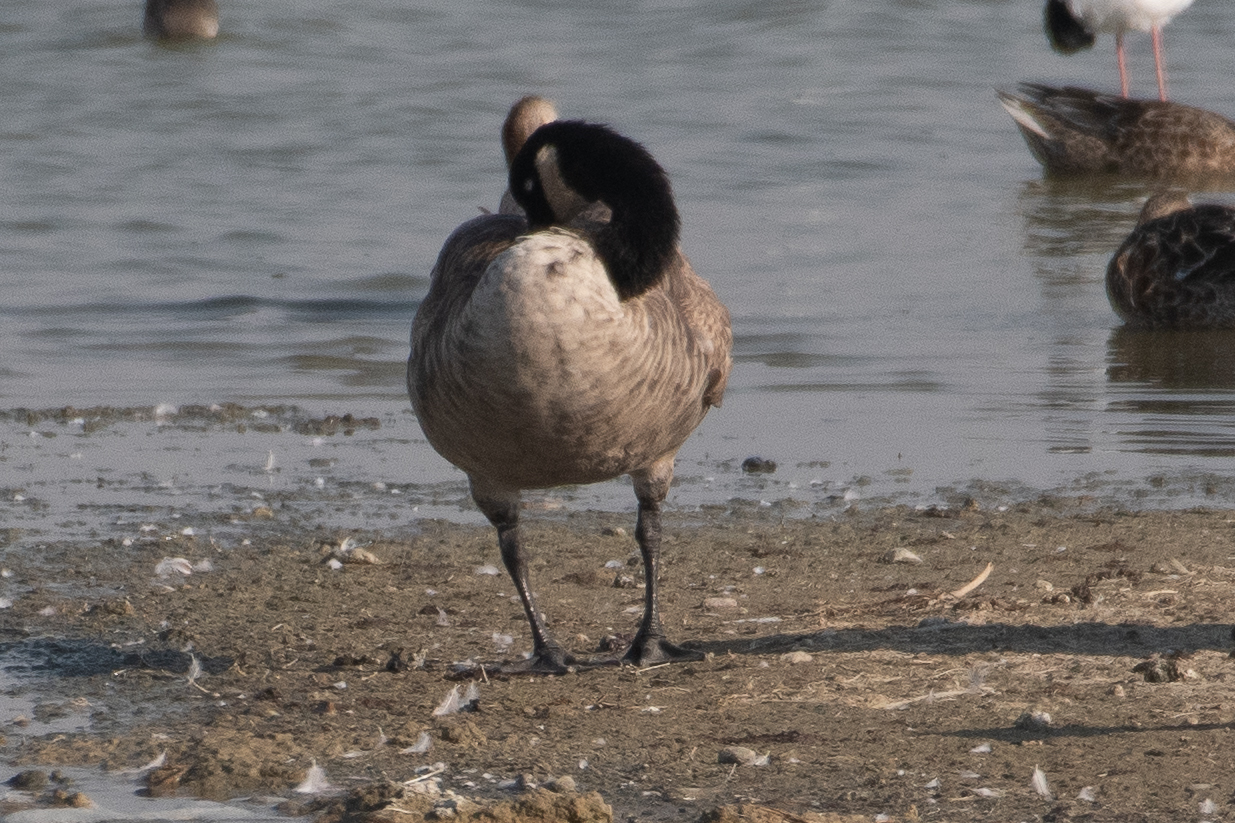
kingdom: Animalia
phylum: Chordata
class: Aves
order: Anseriformes
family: Anatidae
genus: Branta
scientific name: Branta canadensis
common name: Canada goose
